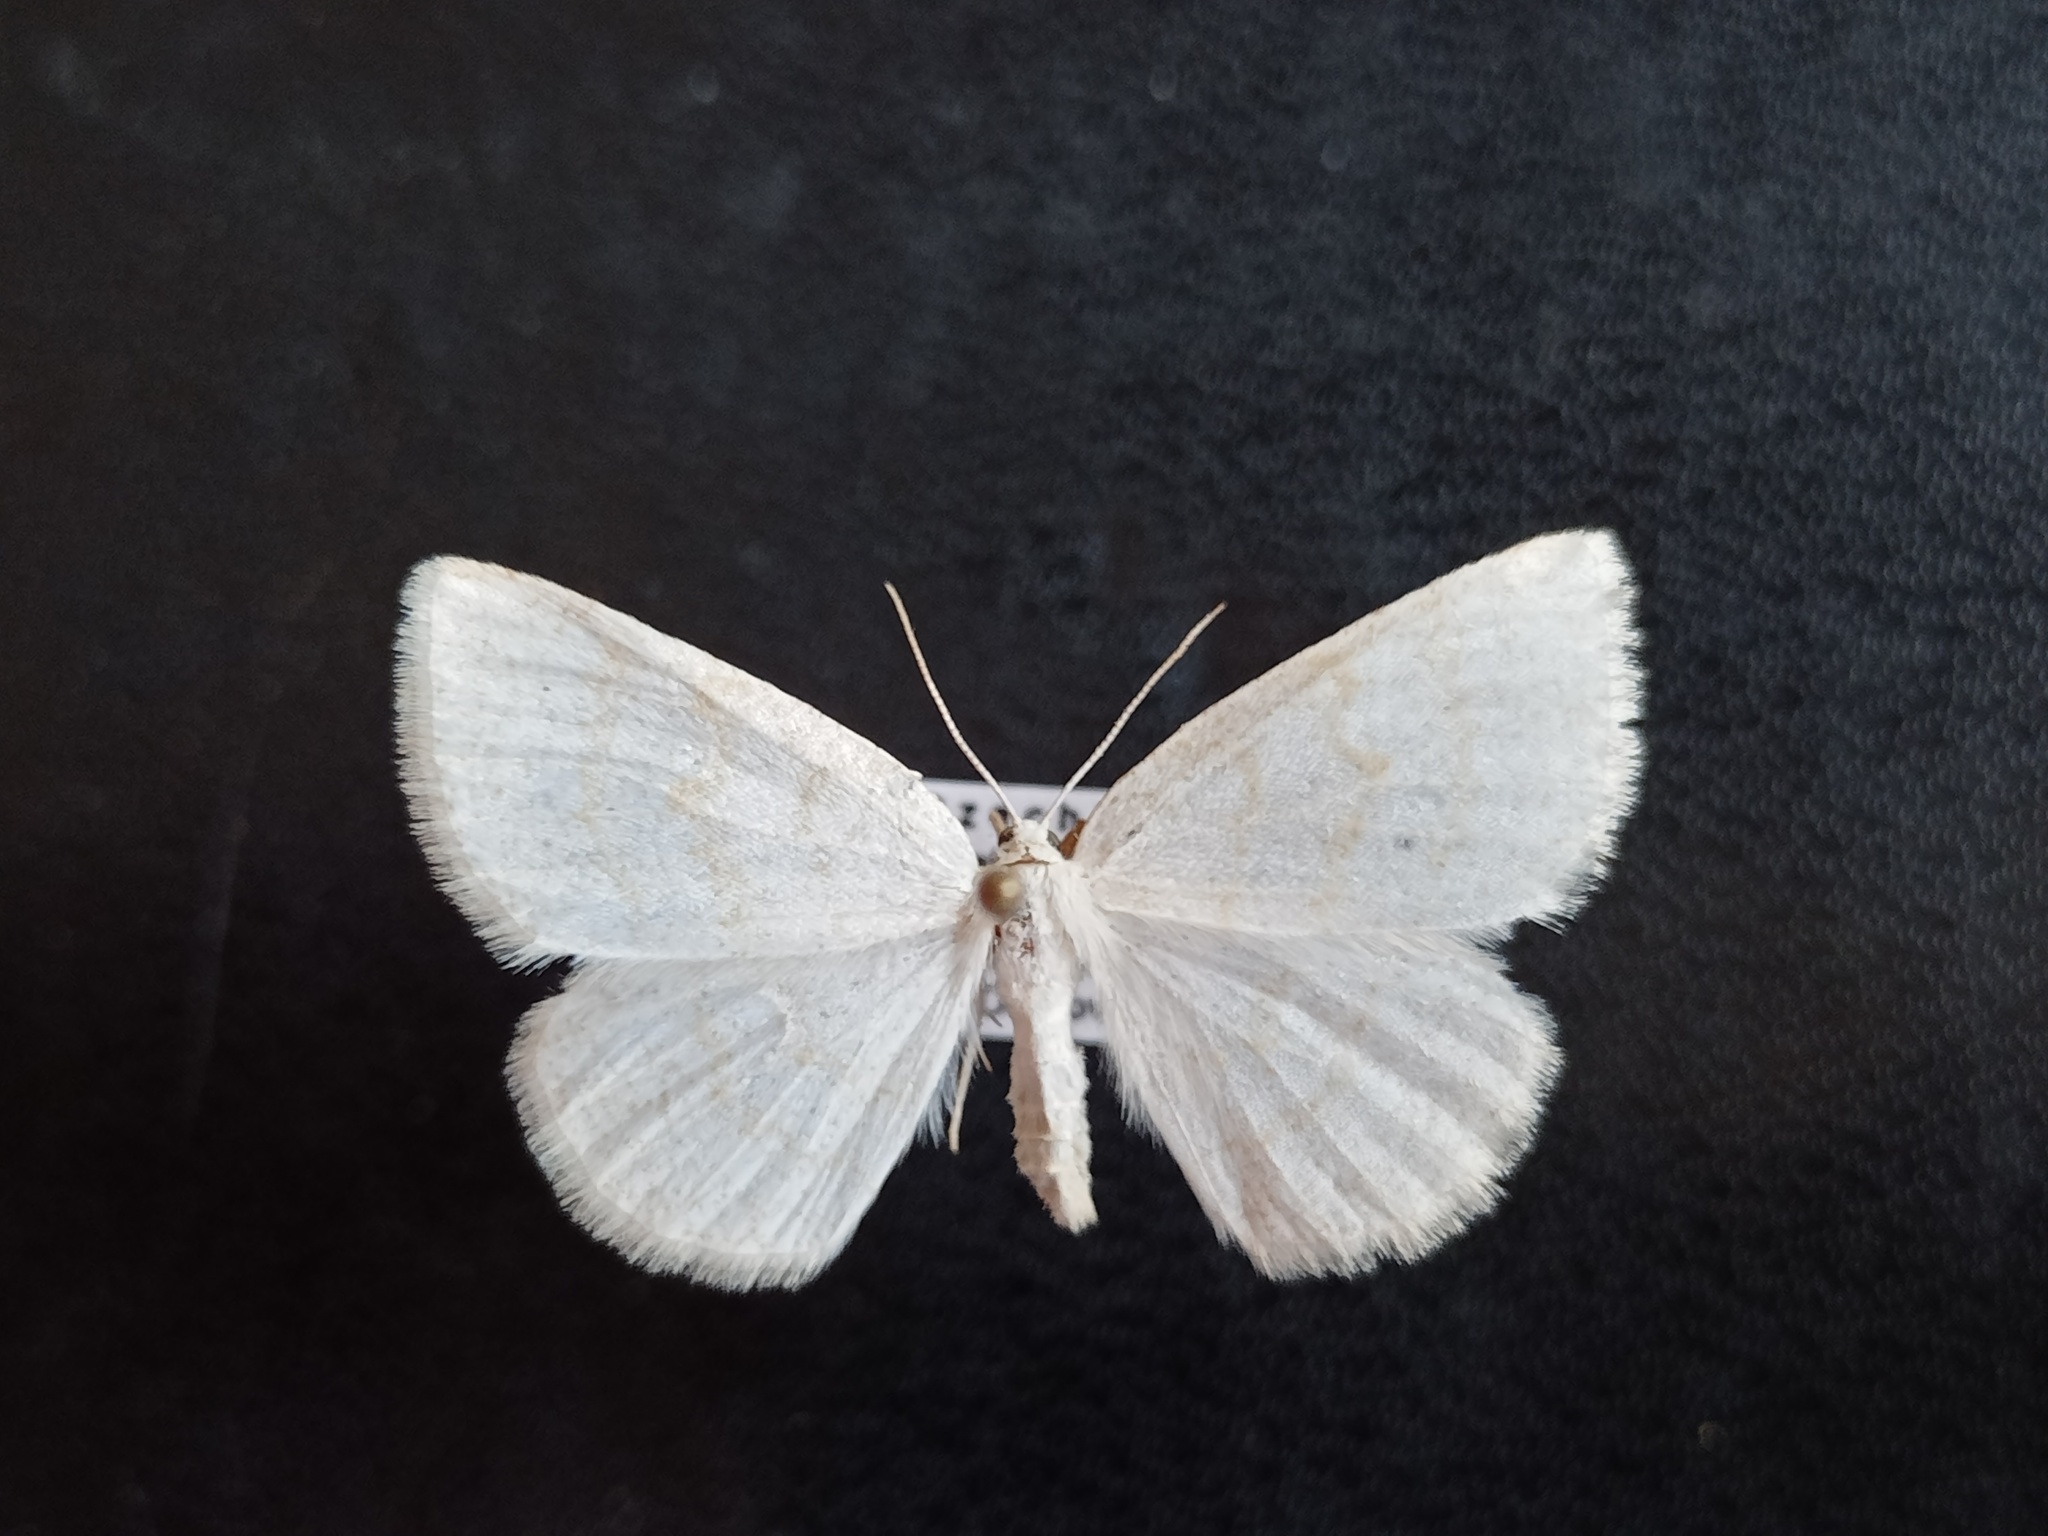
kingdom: Animalia
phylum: Arthropoda
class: Insecta
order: Lepidoptera
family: Geometridae
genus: Cabera
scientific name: Cabera exanthemata
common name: Common wave
